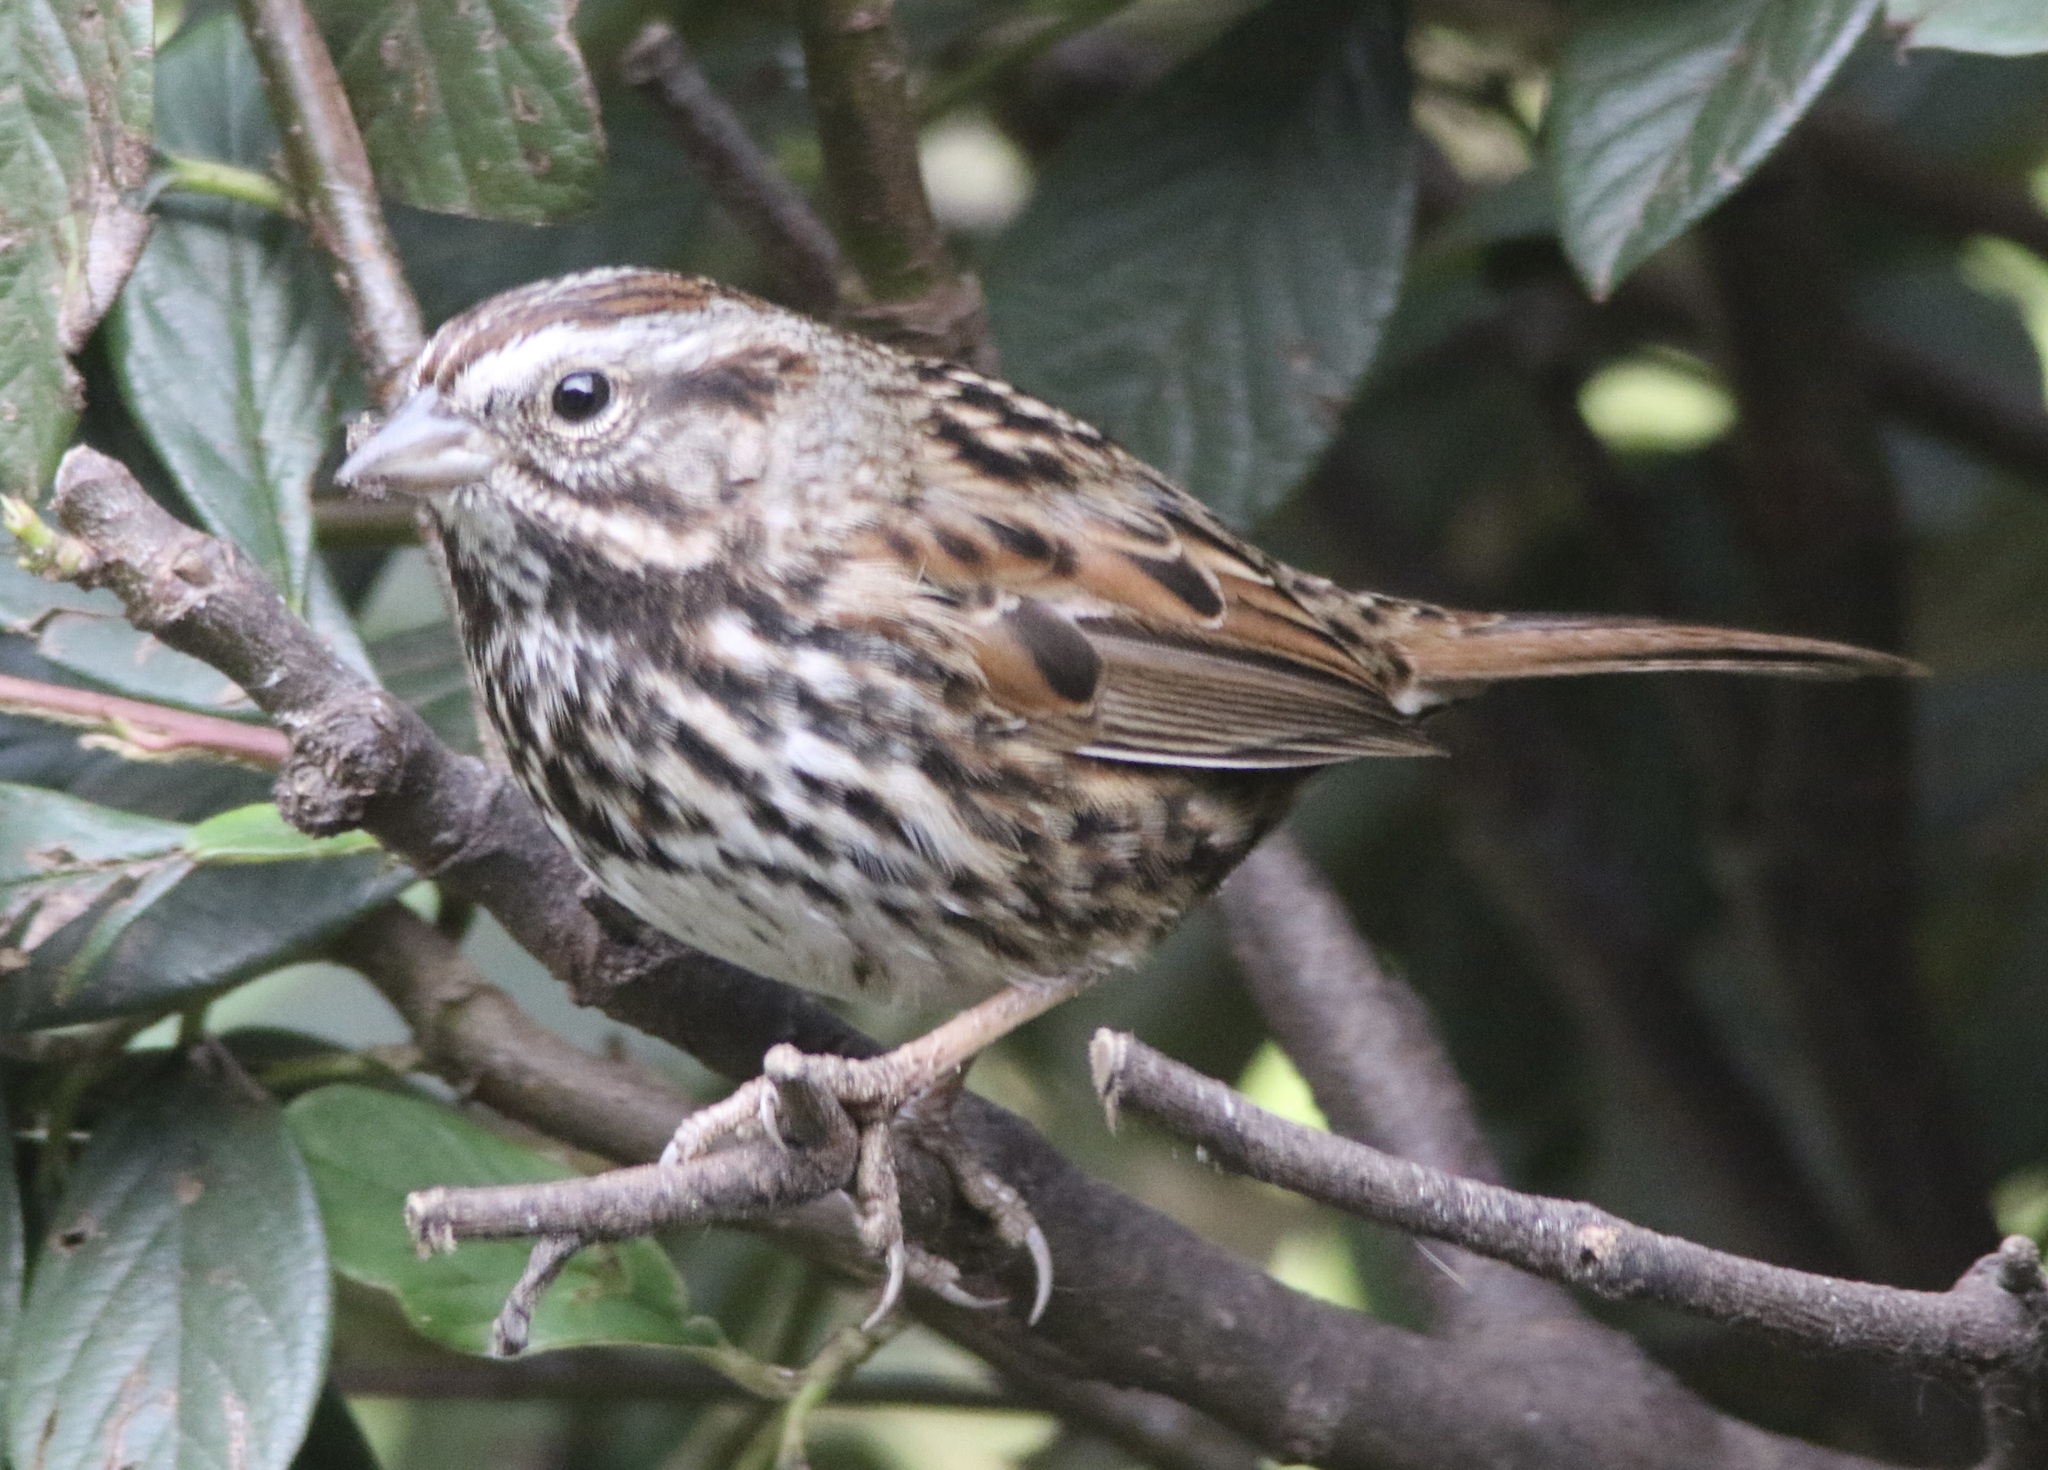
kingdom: Animalia
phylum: Chordata
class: Aves
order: Passeriformes
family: Passerellidae
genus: Melospiza
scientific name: Melospiza melodia
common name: Song sparrow
